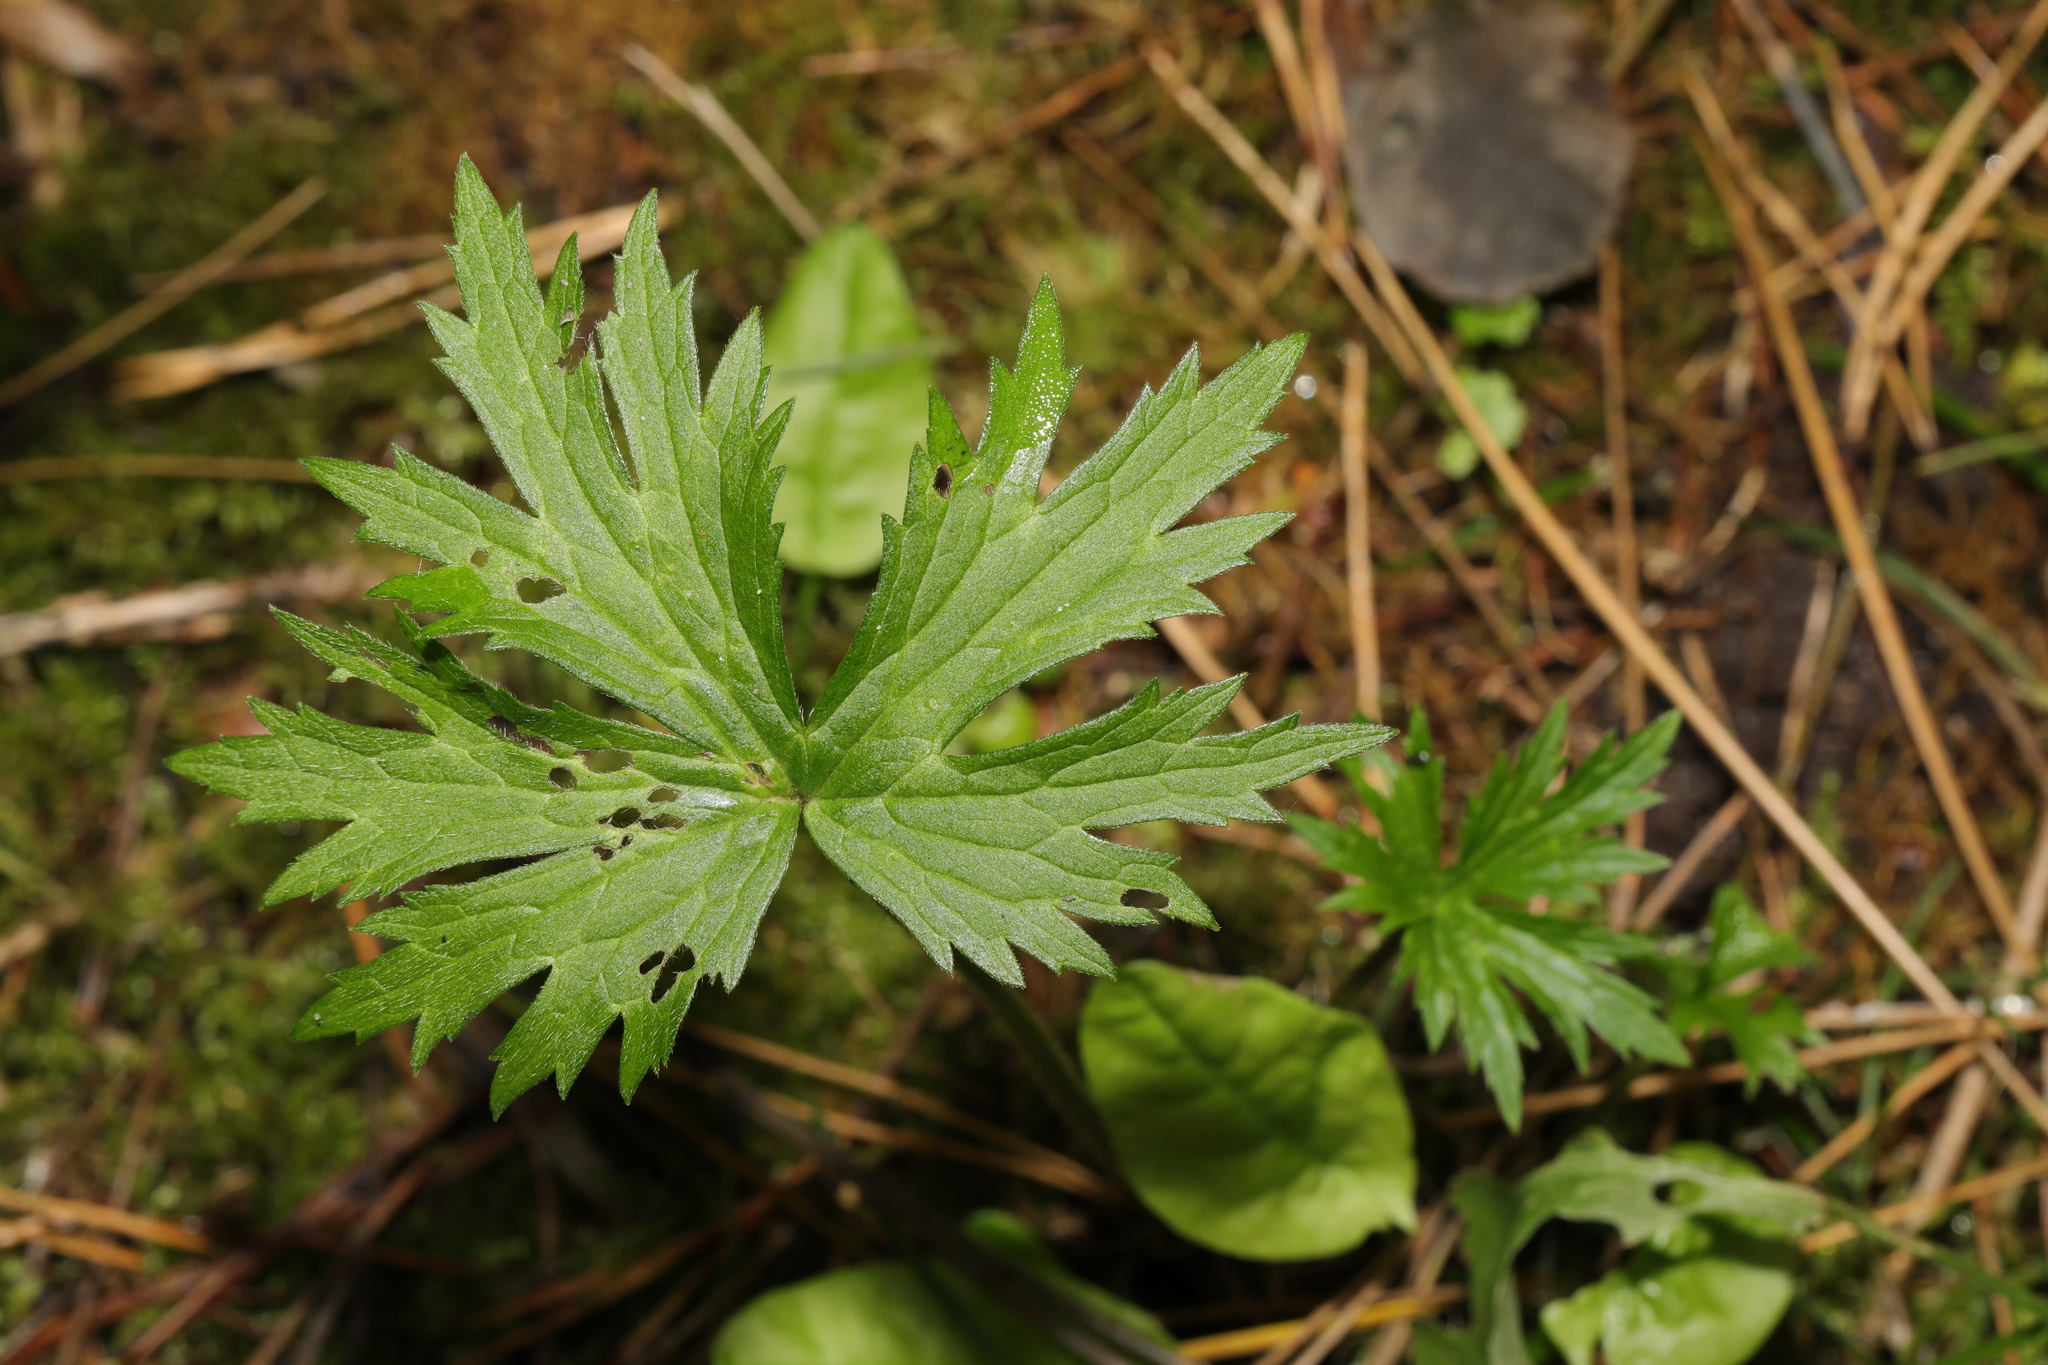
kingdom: Plantae
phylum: Tracheophyta
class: Magnoliopsida
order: Ranunculales
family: Ranunculaceae
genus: Ranunculus
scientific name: Ranunculus acris
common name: Meadow buttercup
